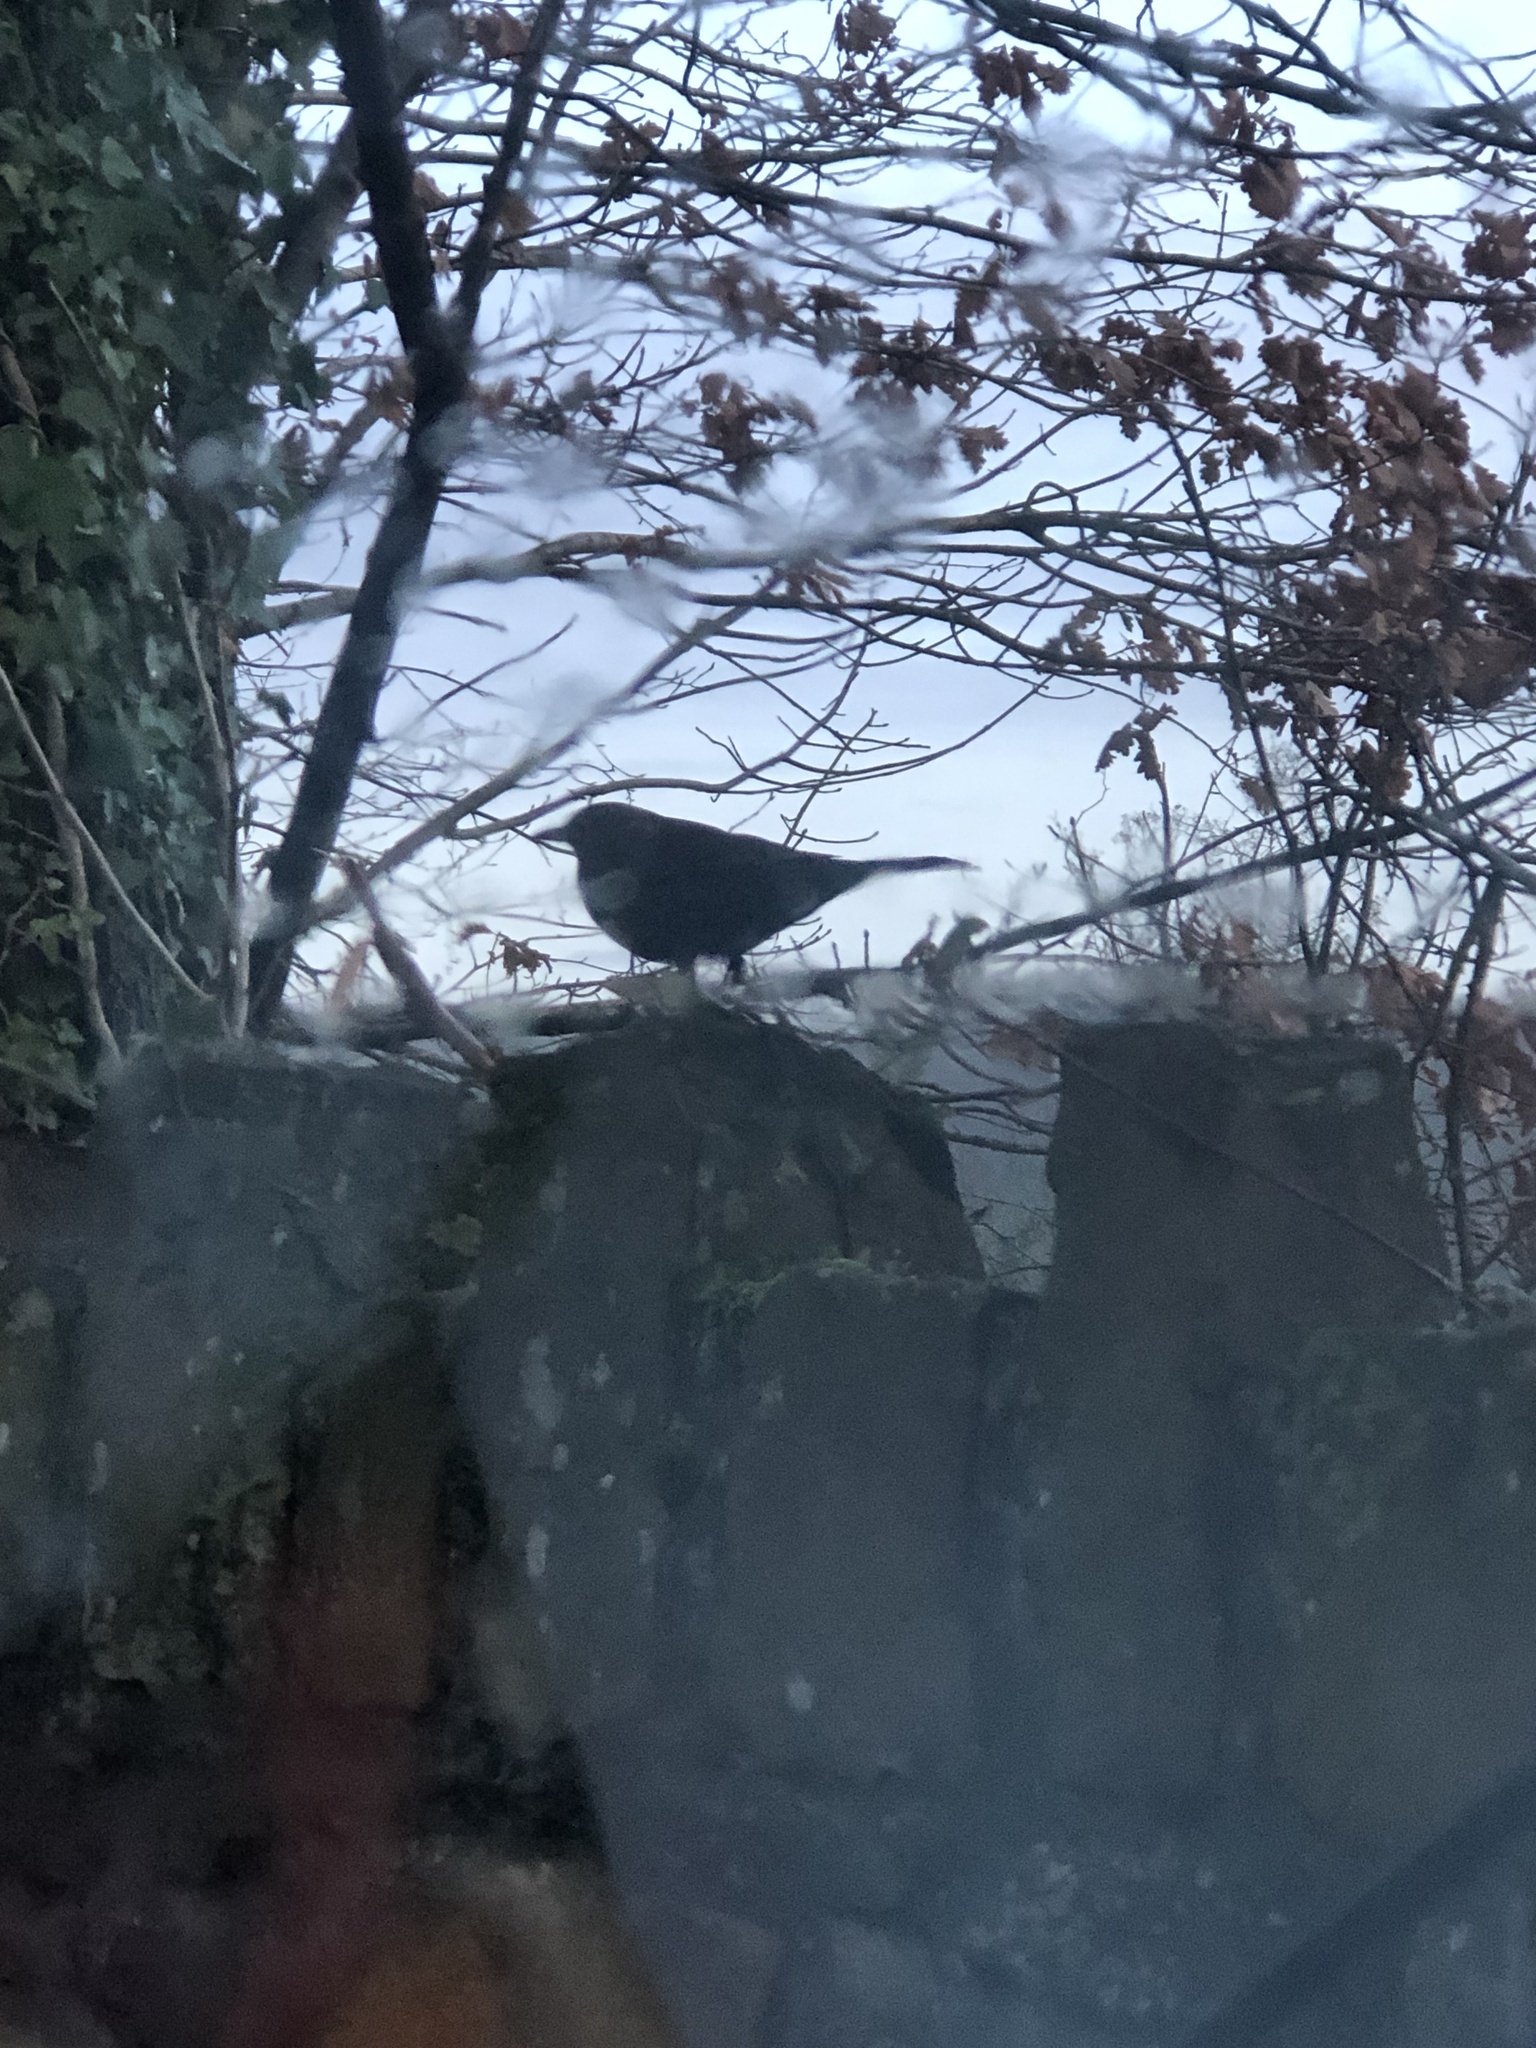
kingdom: Animalia
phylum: Chordata
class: Aves
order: Passeriformes
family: Turdidae
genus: Turdus
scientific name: Turdus merula
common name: Common blackbird
